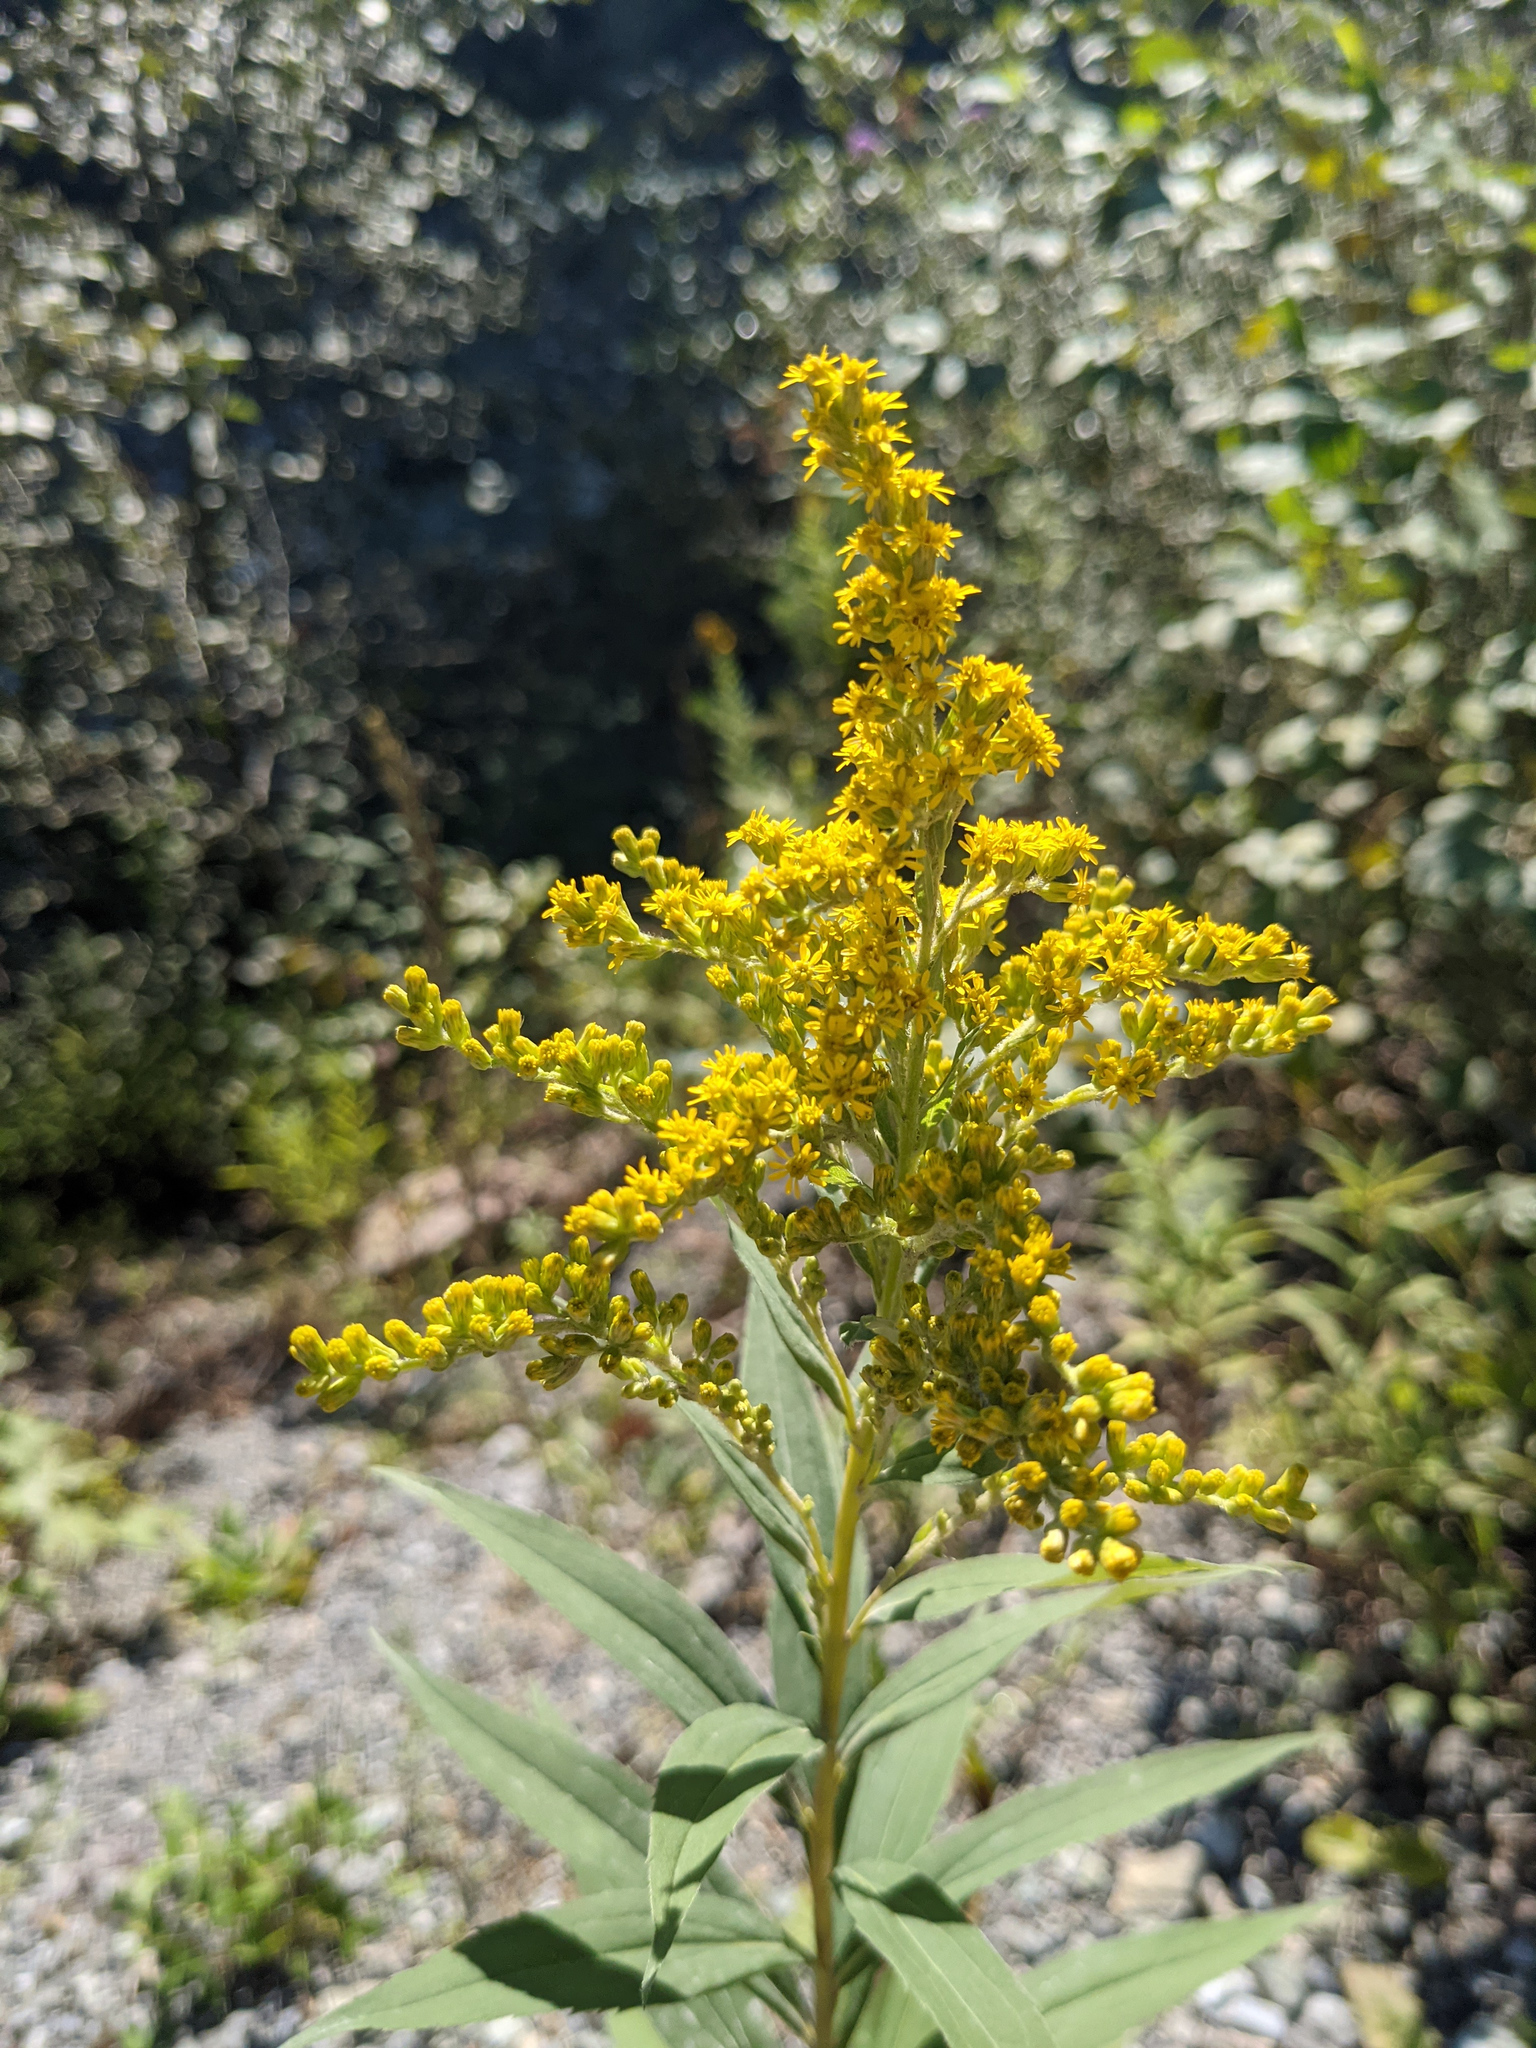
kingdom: Plantae
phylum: Tracheophyta
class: Magnoliopsida
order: Asterales
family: Asteraceae
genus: Solidago
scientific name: Solidago canadensis
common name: Canada goldenrod
